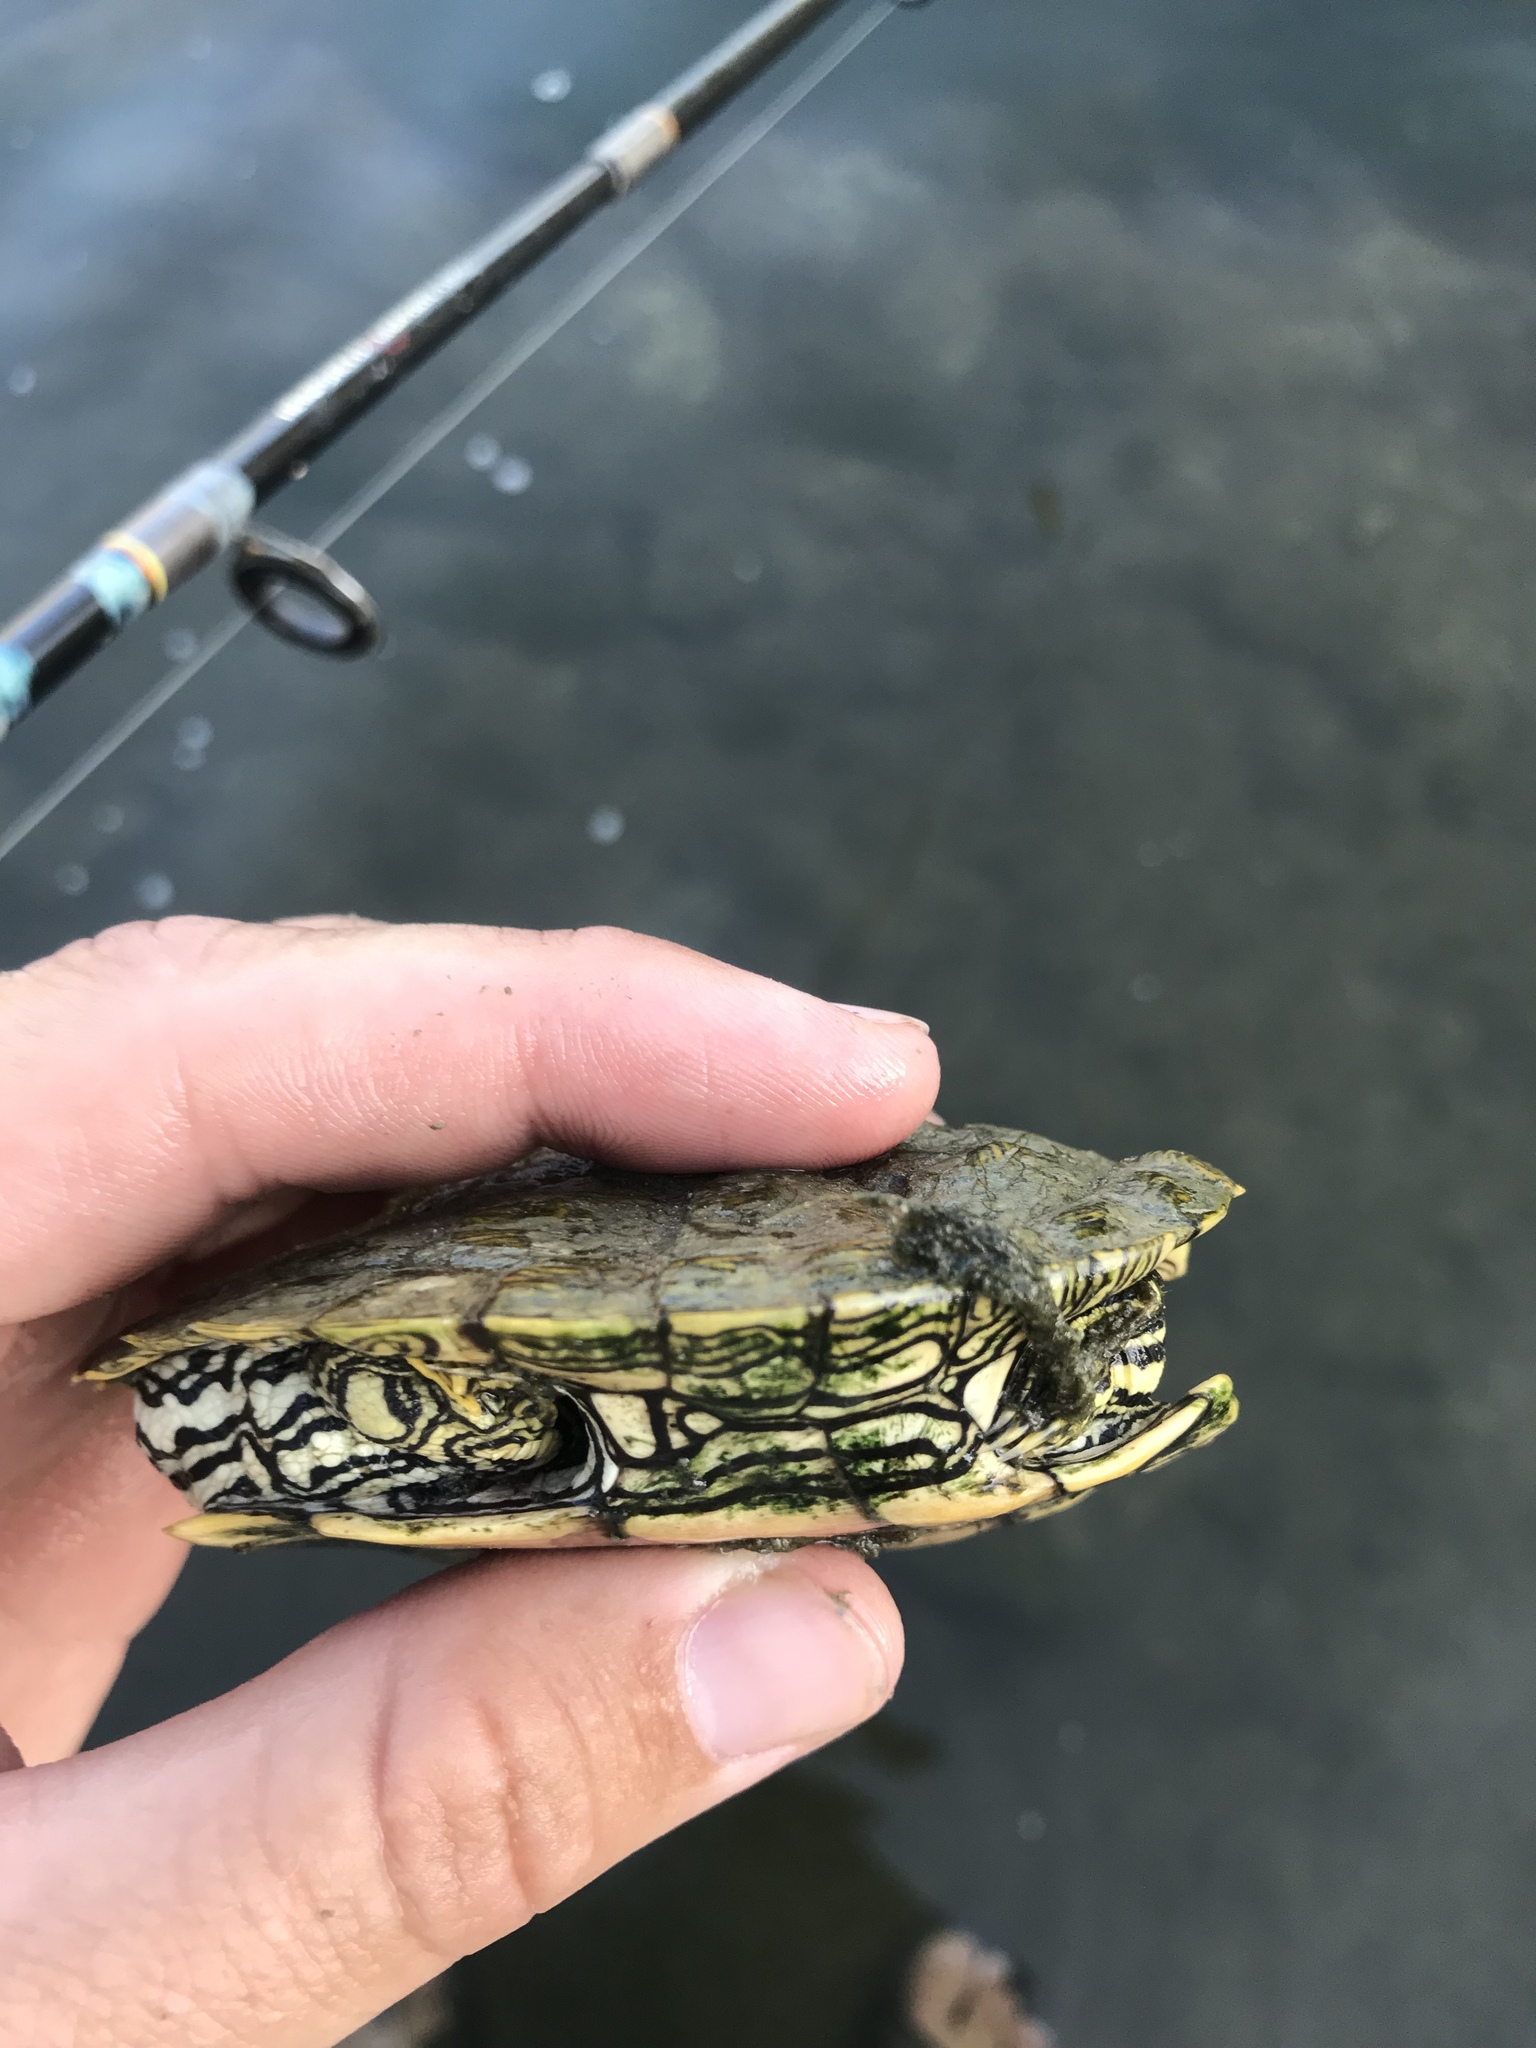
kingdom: Animalia
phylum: Chordata
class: Testudines
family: Emydidae
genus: Graptemys
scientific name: Graptemys caglei
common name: Cagle's map turtle
